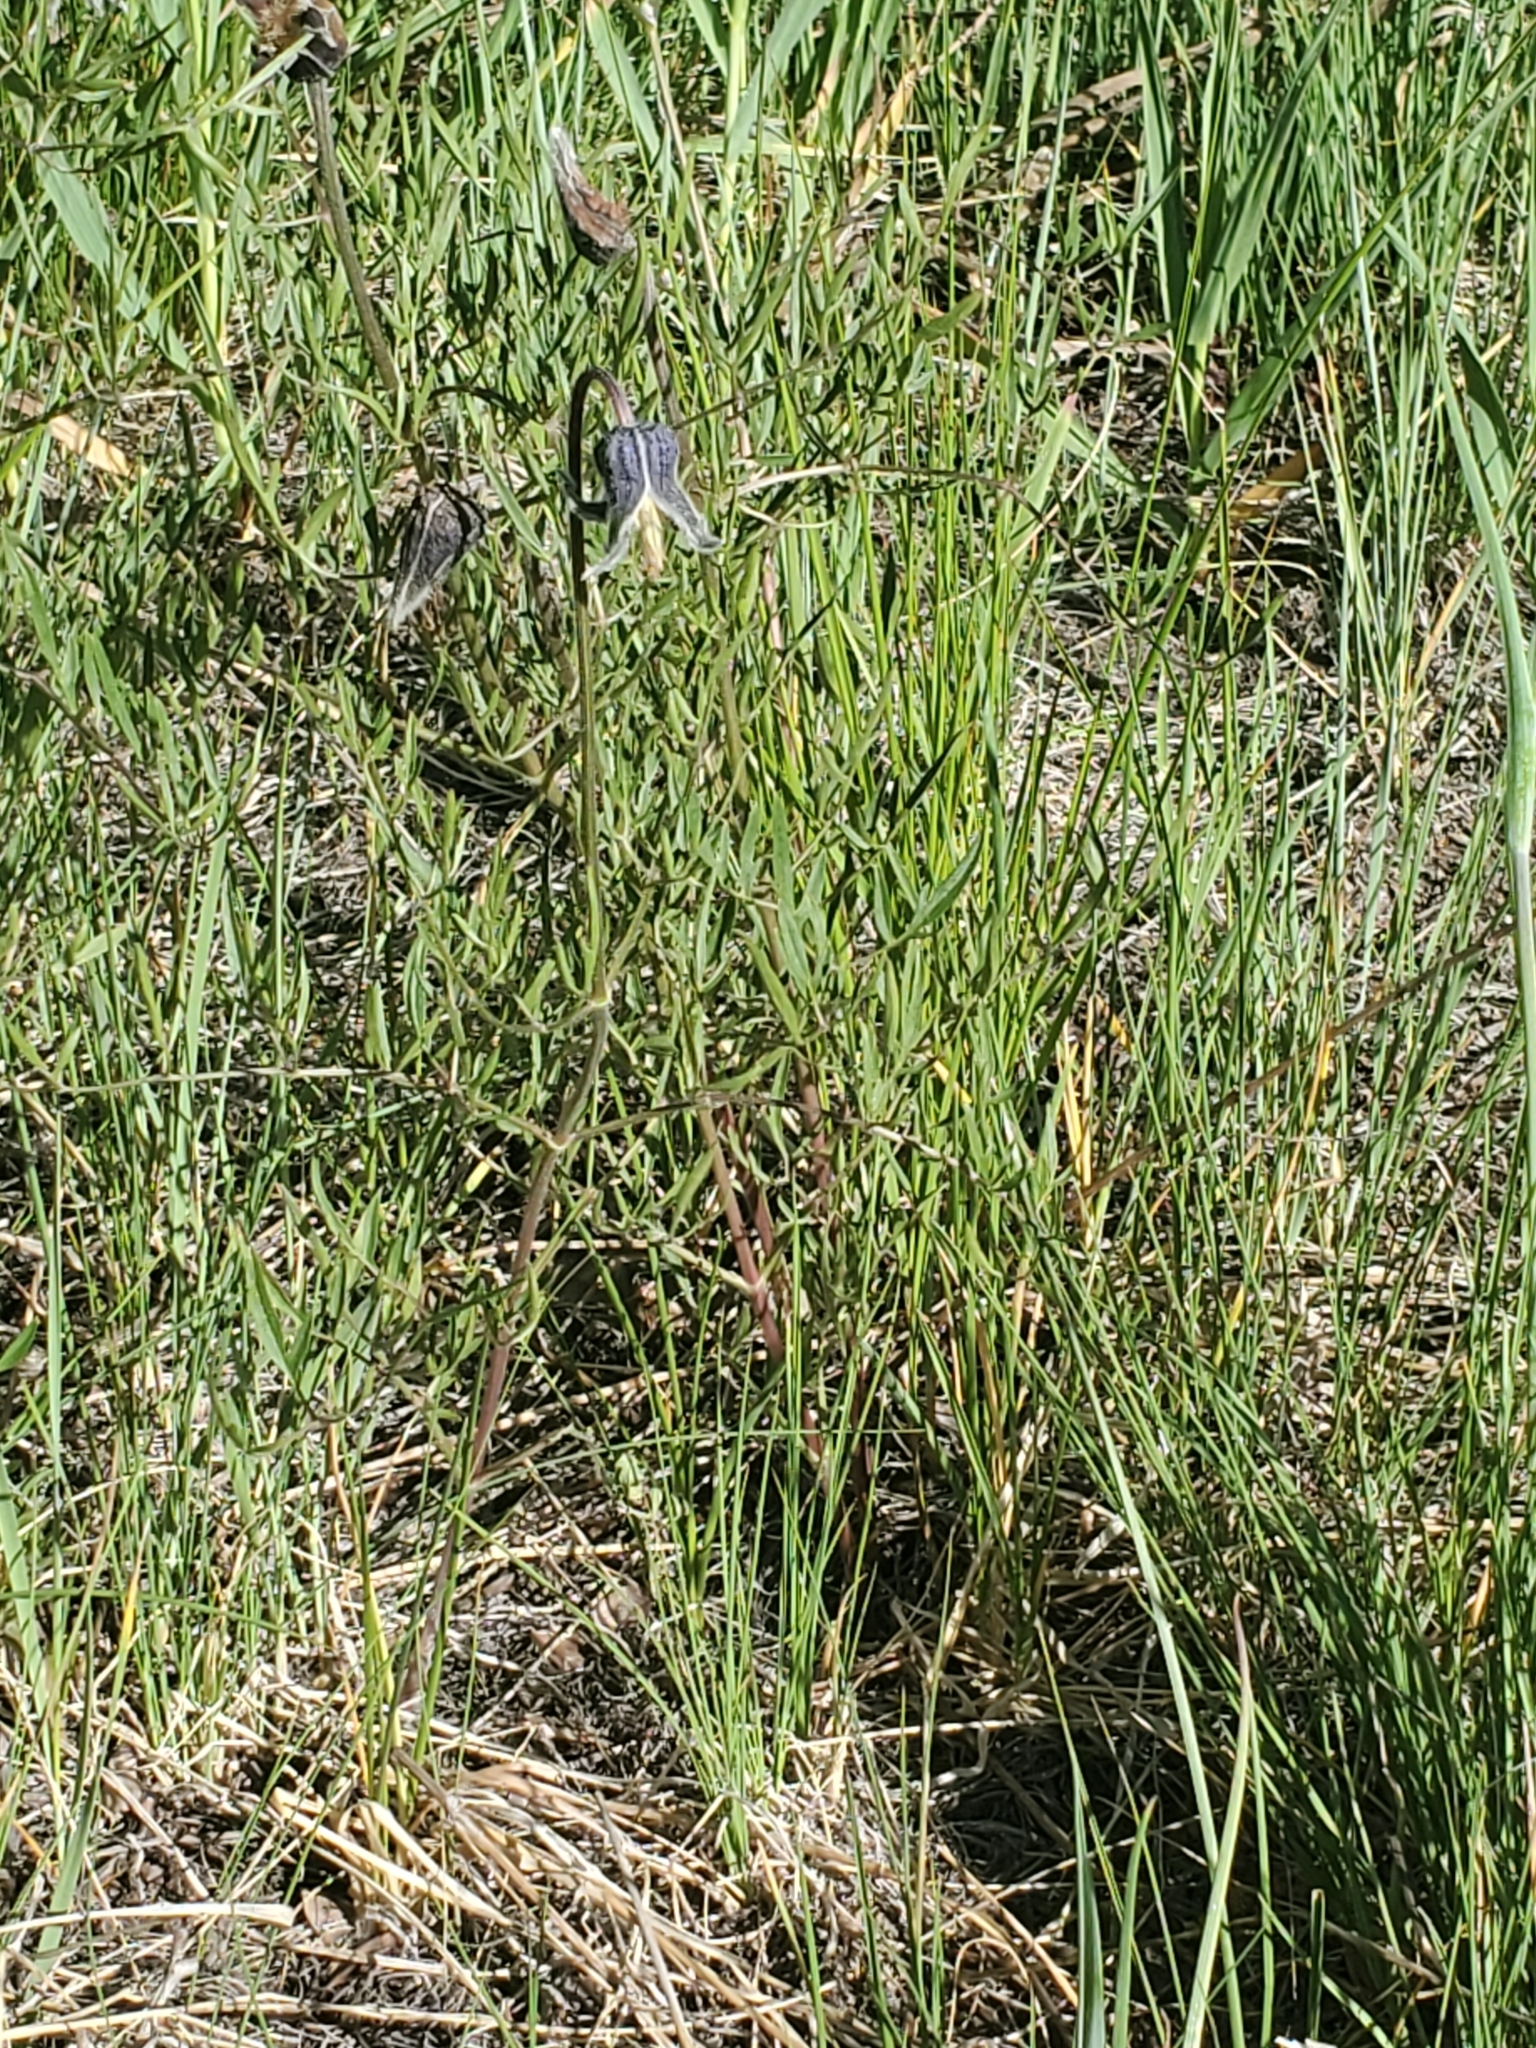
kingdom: Plantae
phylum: Tracheophyta
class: Magnoliopsida
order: Ranunculales
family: Ranunculaceae
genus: Clematis
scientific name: Clematis hirsutissima
